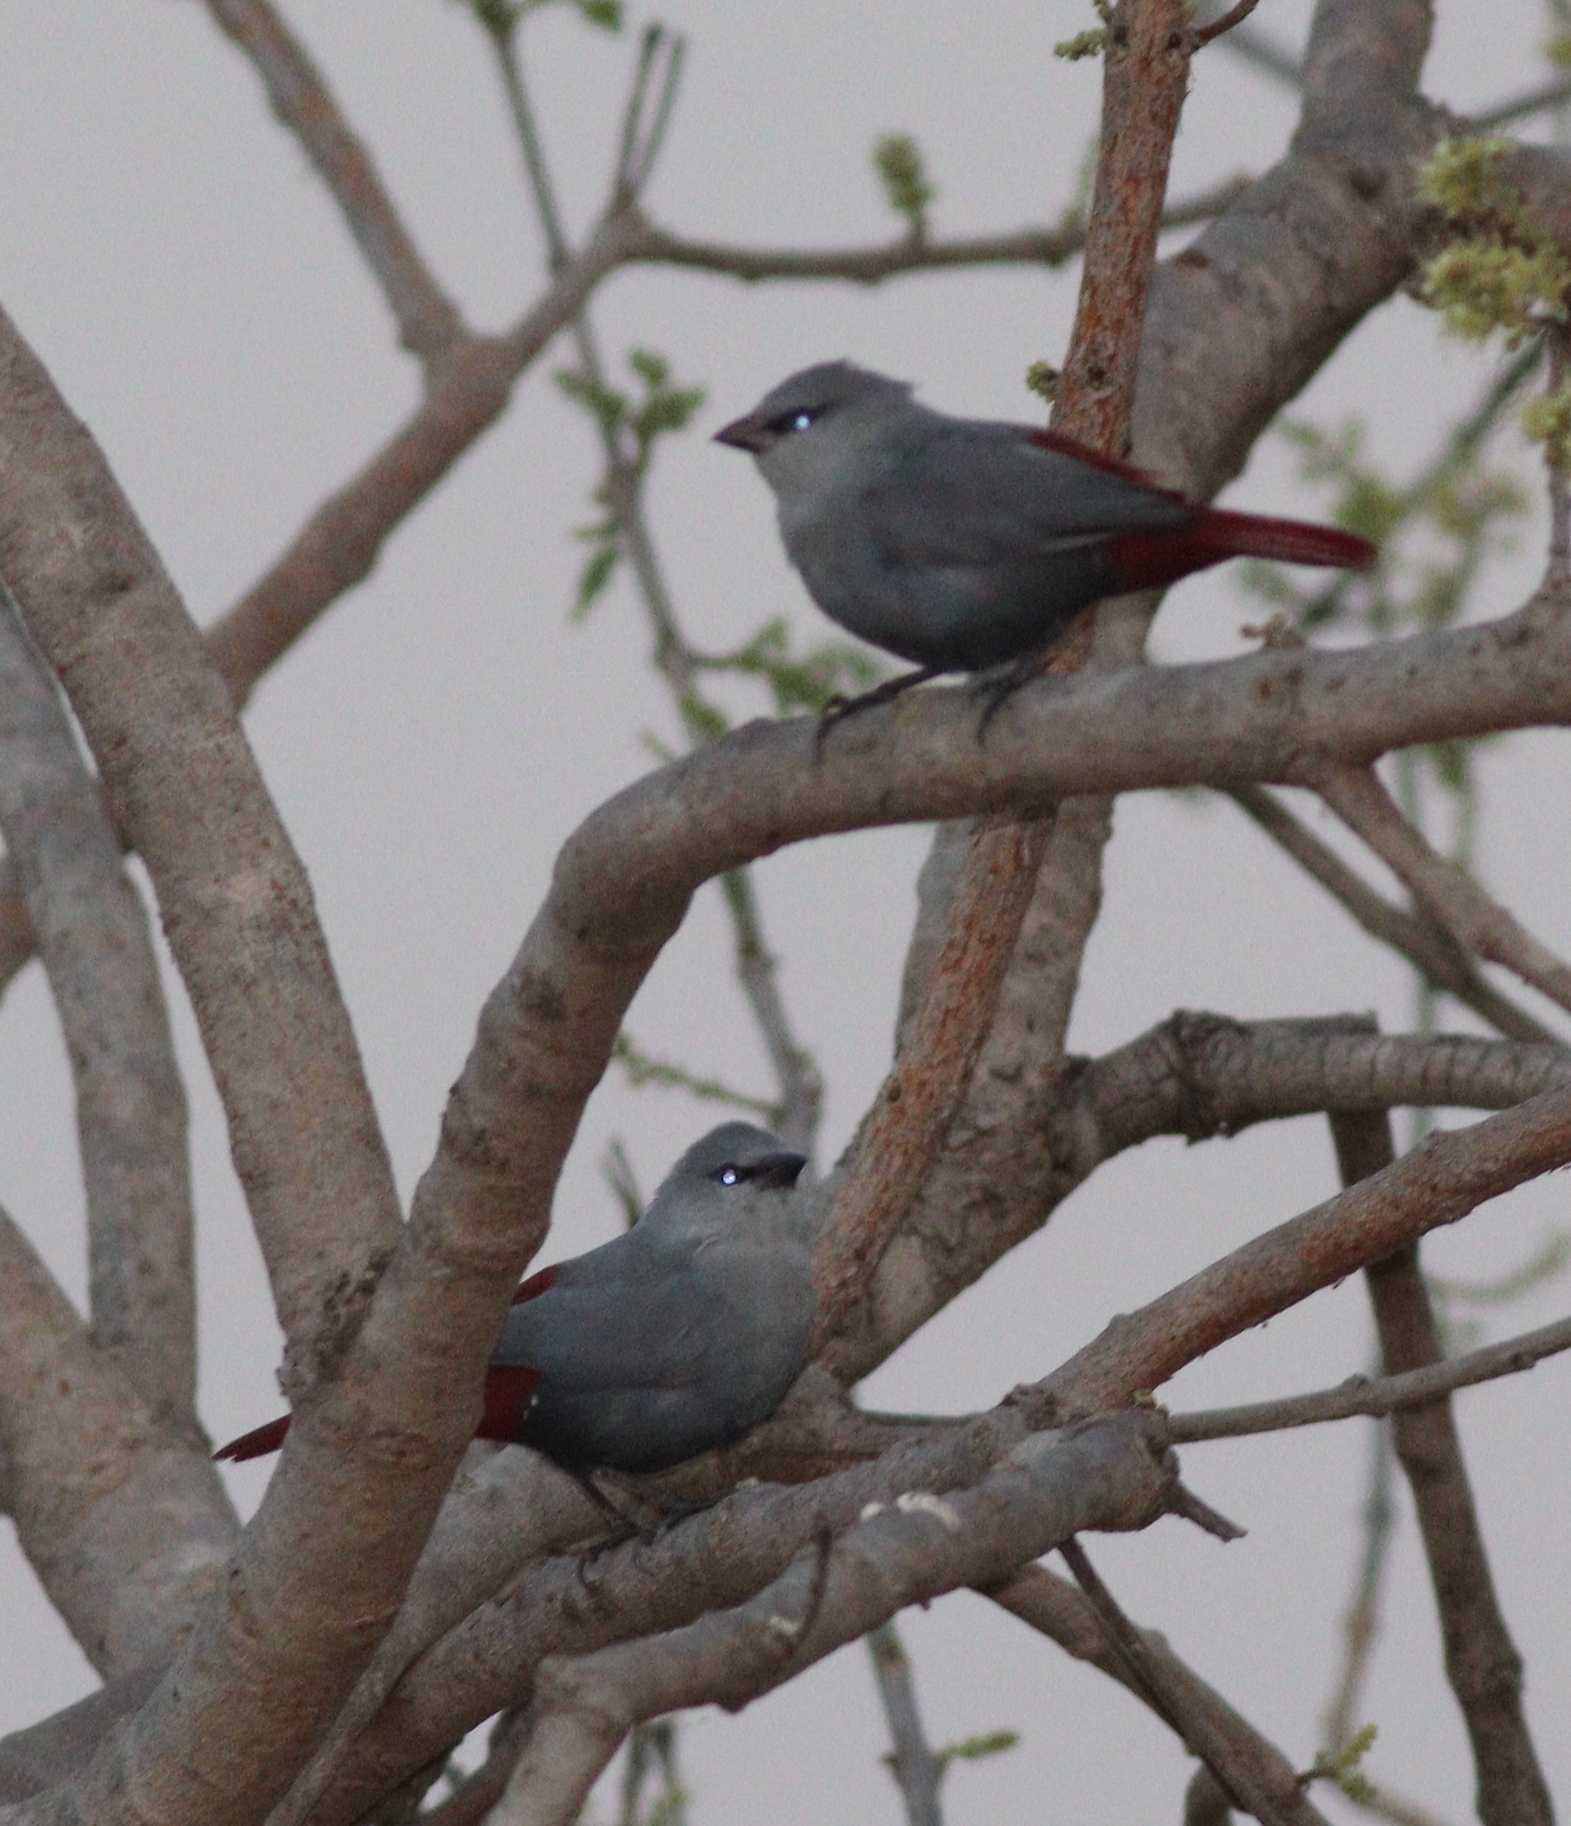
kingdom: Animalia
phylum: Chordata
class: Aves
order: Passeriformes
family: Estrildidae
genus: Estrilda
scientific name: Estrilda caerulescens
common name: Lavender waxbill
